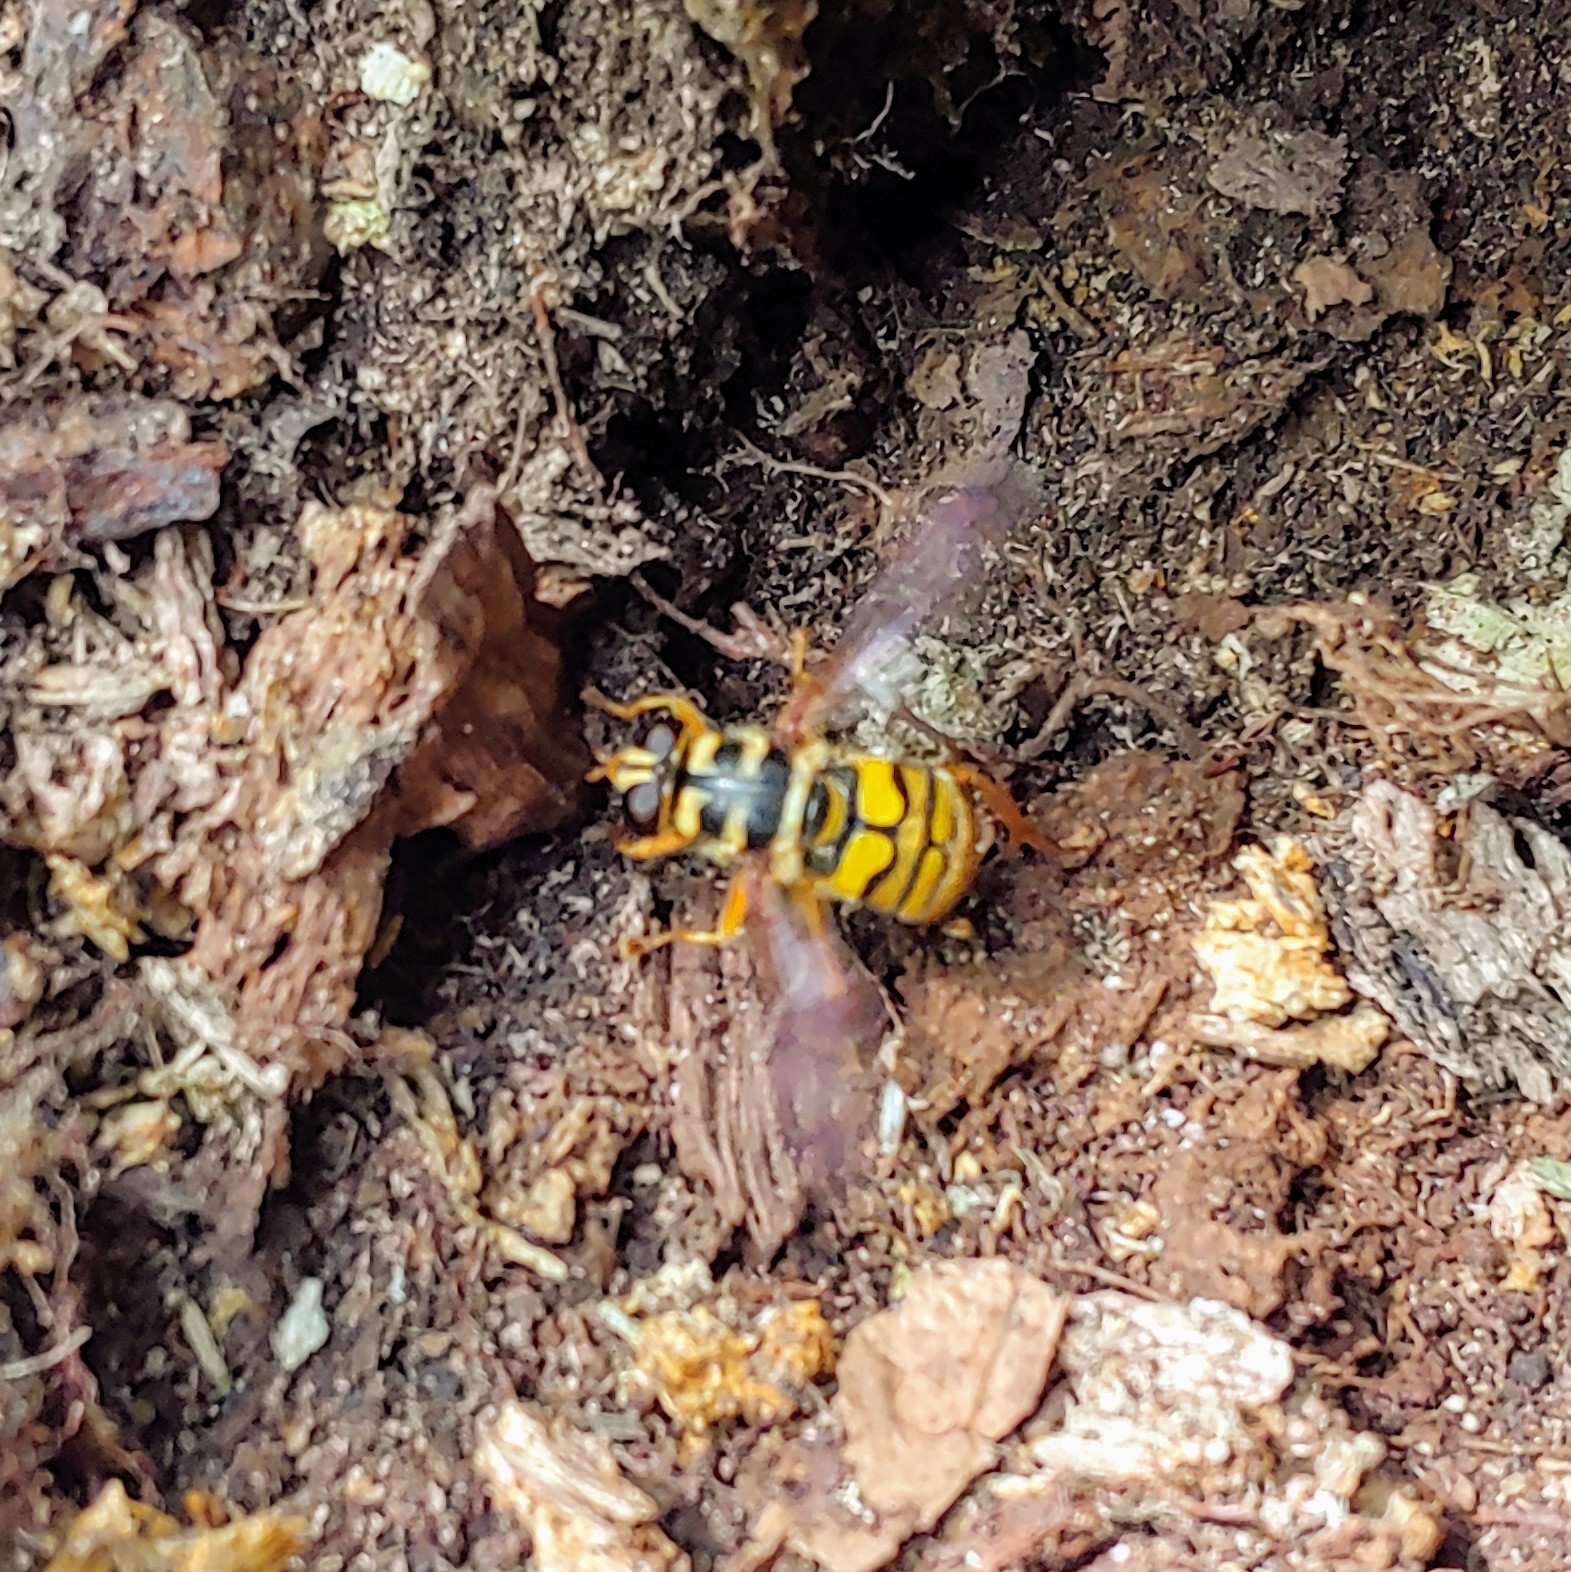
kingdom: Animalia
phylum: Arthropoda
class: Insecta
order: Diptera
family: Syrphidae
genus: Milesia
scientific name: Milesia virginiensis
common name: Virginia giant
